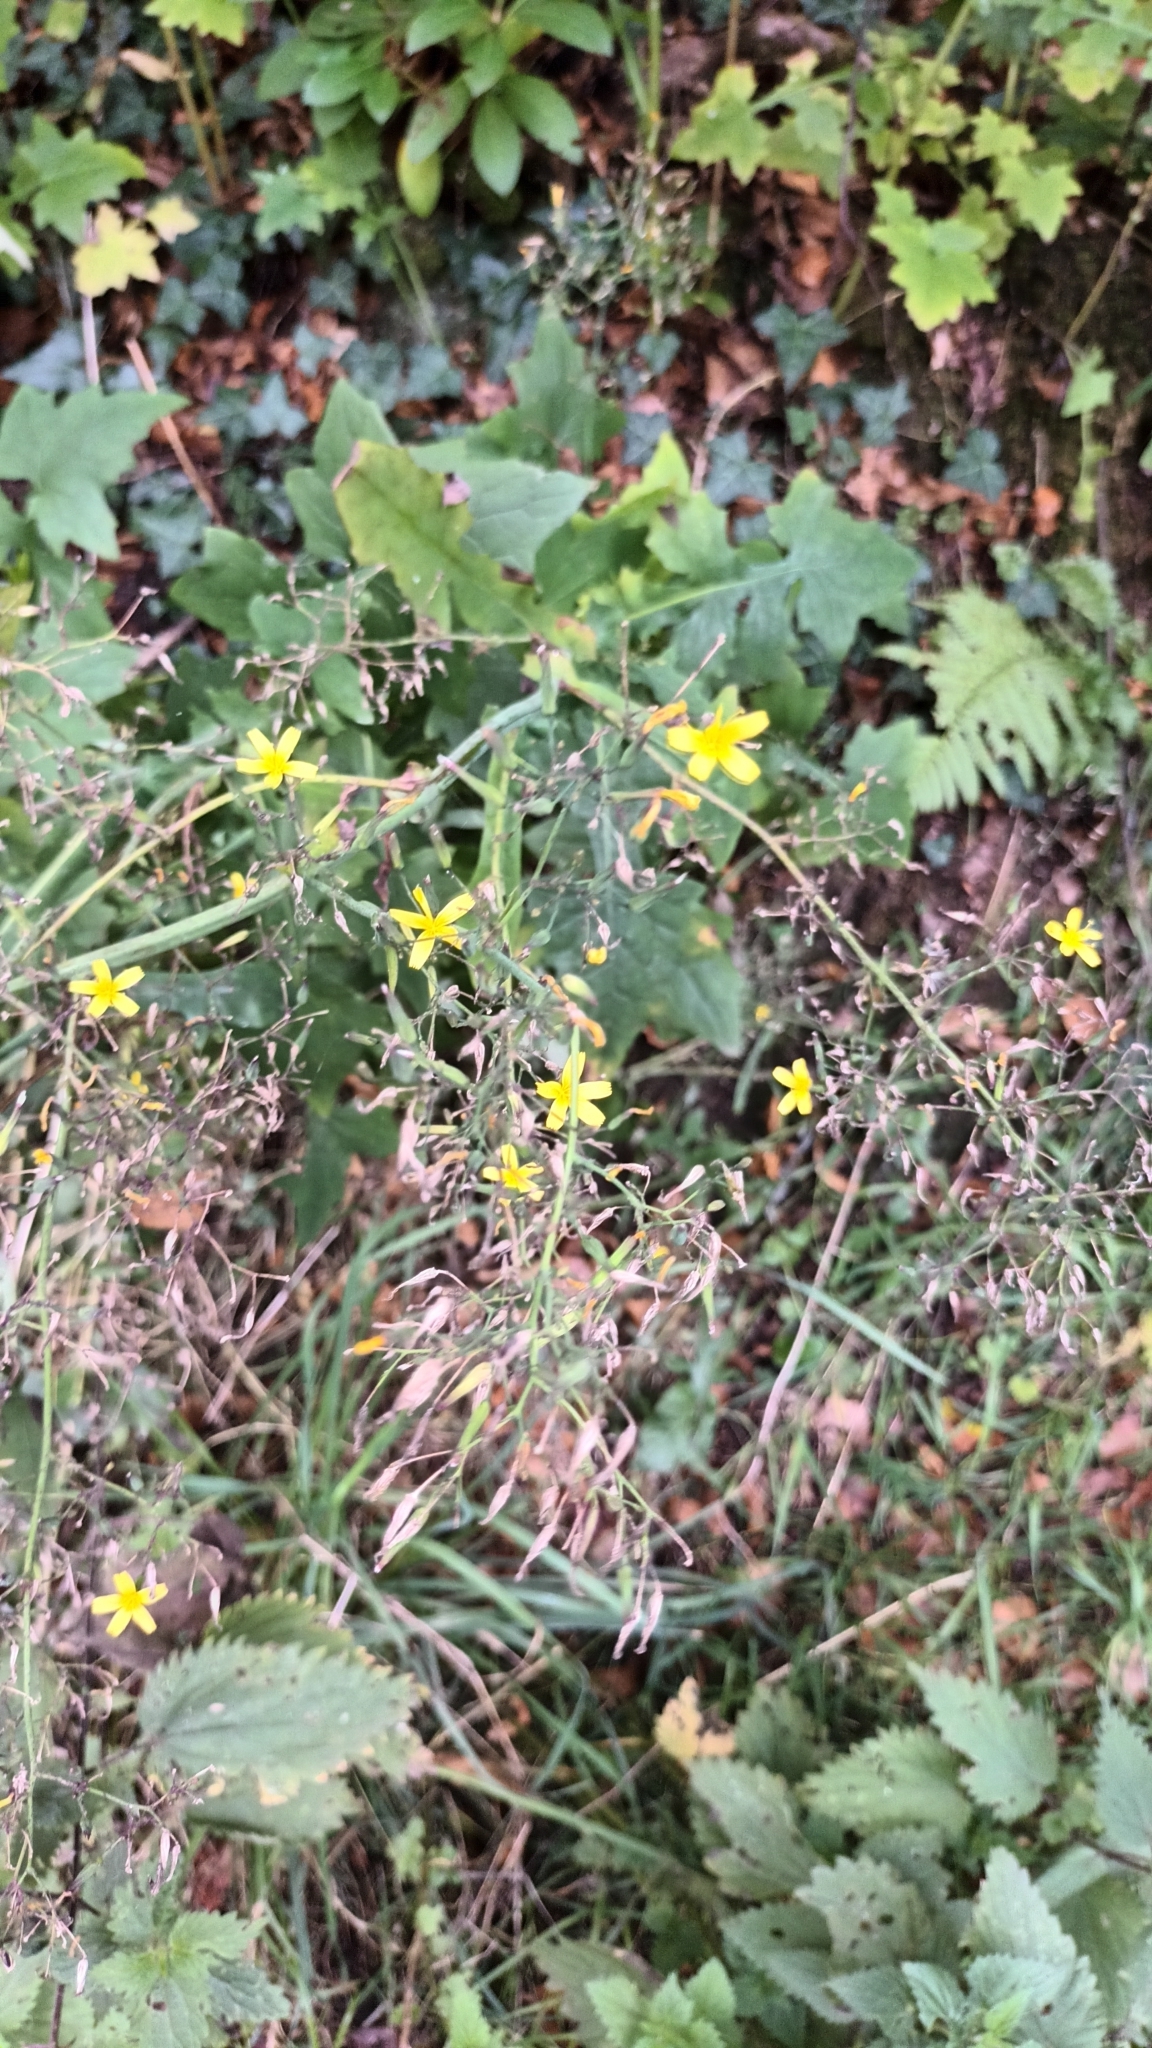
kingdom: Plantae
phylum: Tracheophyta
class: Magnoliopsida
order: Asterales
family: Asteraceae
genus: Mycelis
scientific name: Mycelis muralis
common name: Wall lettuce
